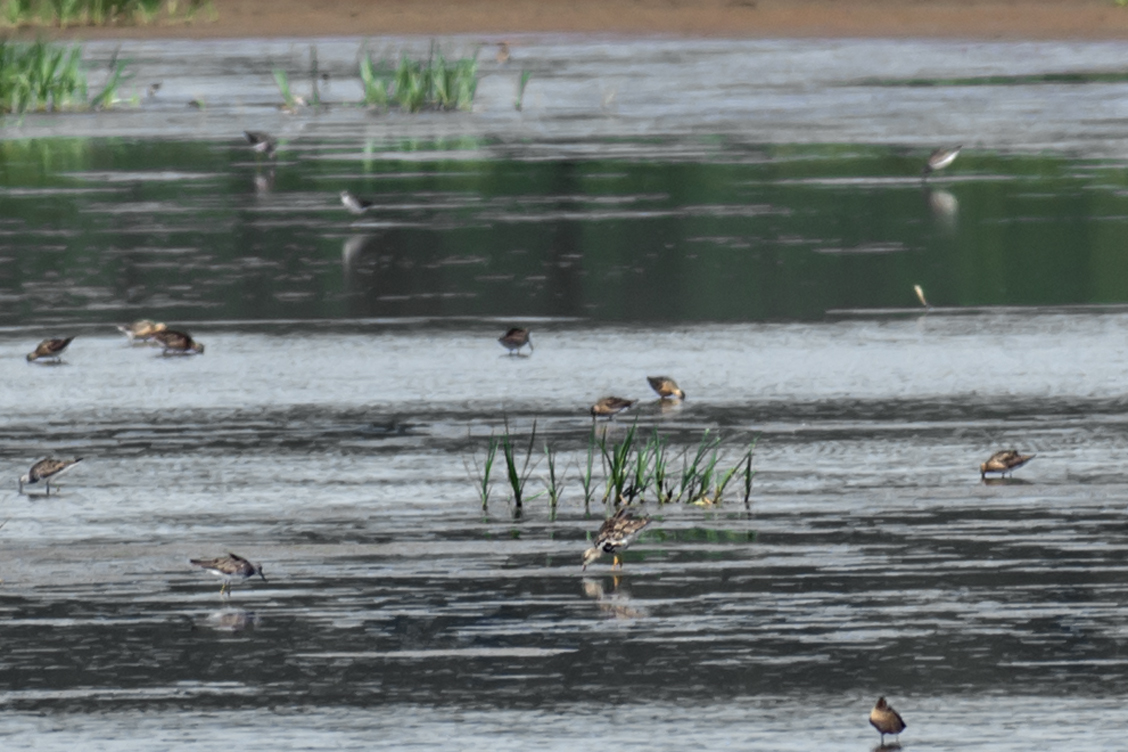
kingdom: Animalia
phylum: Chordata
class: Aves
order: Charadriiformes
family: Scolopacidae
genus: Calidris
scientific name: Calidris pugnax
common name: Ruff
